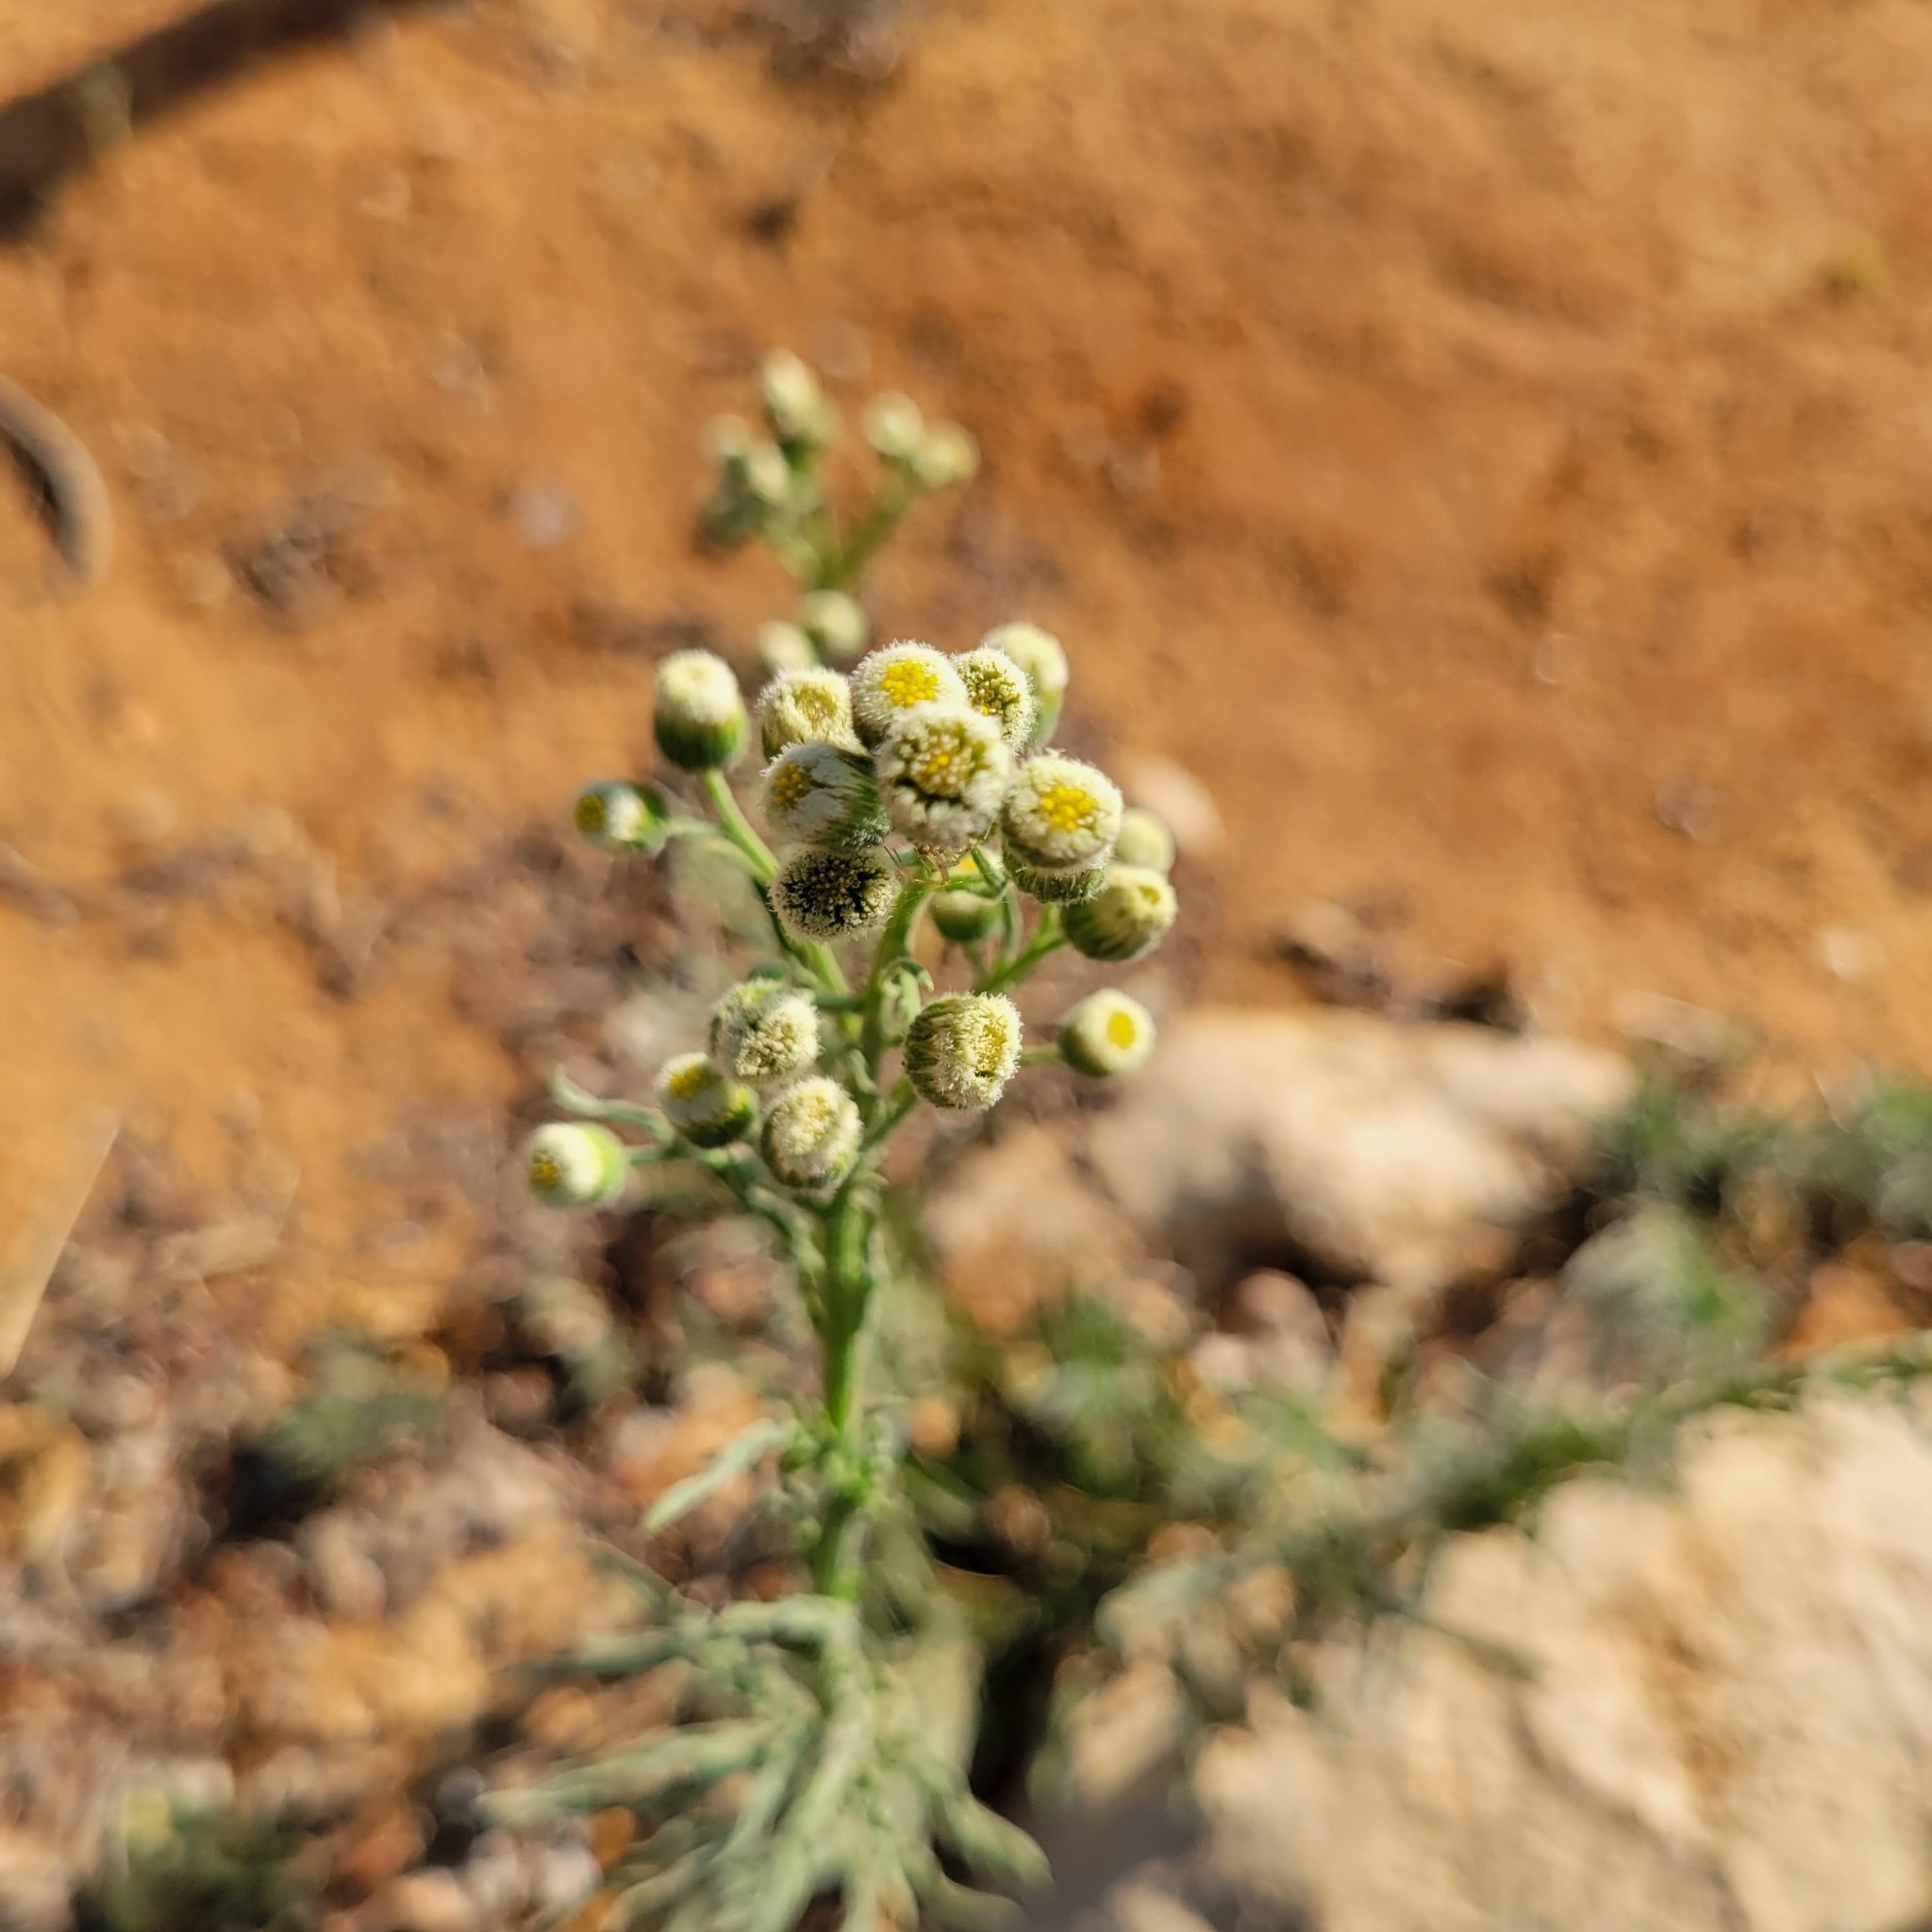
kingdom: Plantae
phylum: Tracheophyta
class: Magnoliopsida
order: Asterales
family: Asteraceae
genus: Erigeron
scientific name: Erigeron bonariensis
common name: Argentine fleabane
